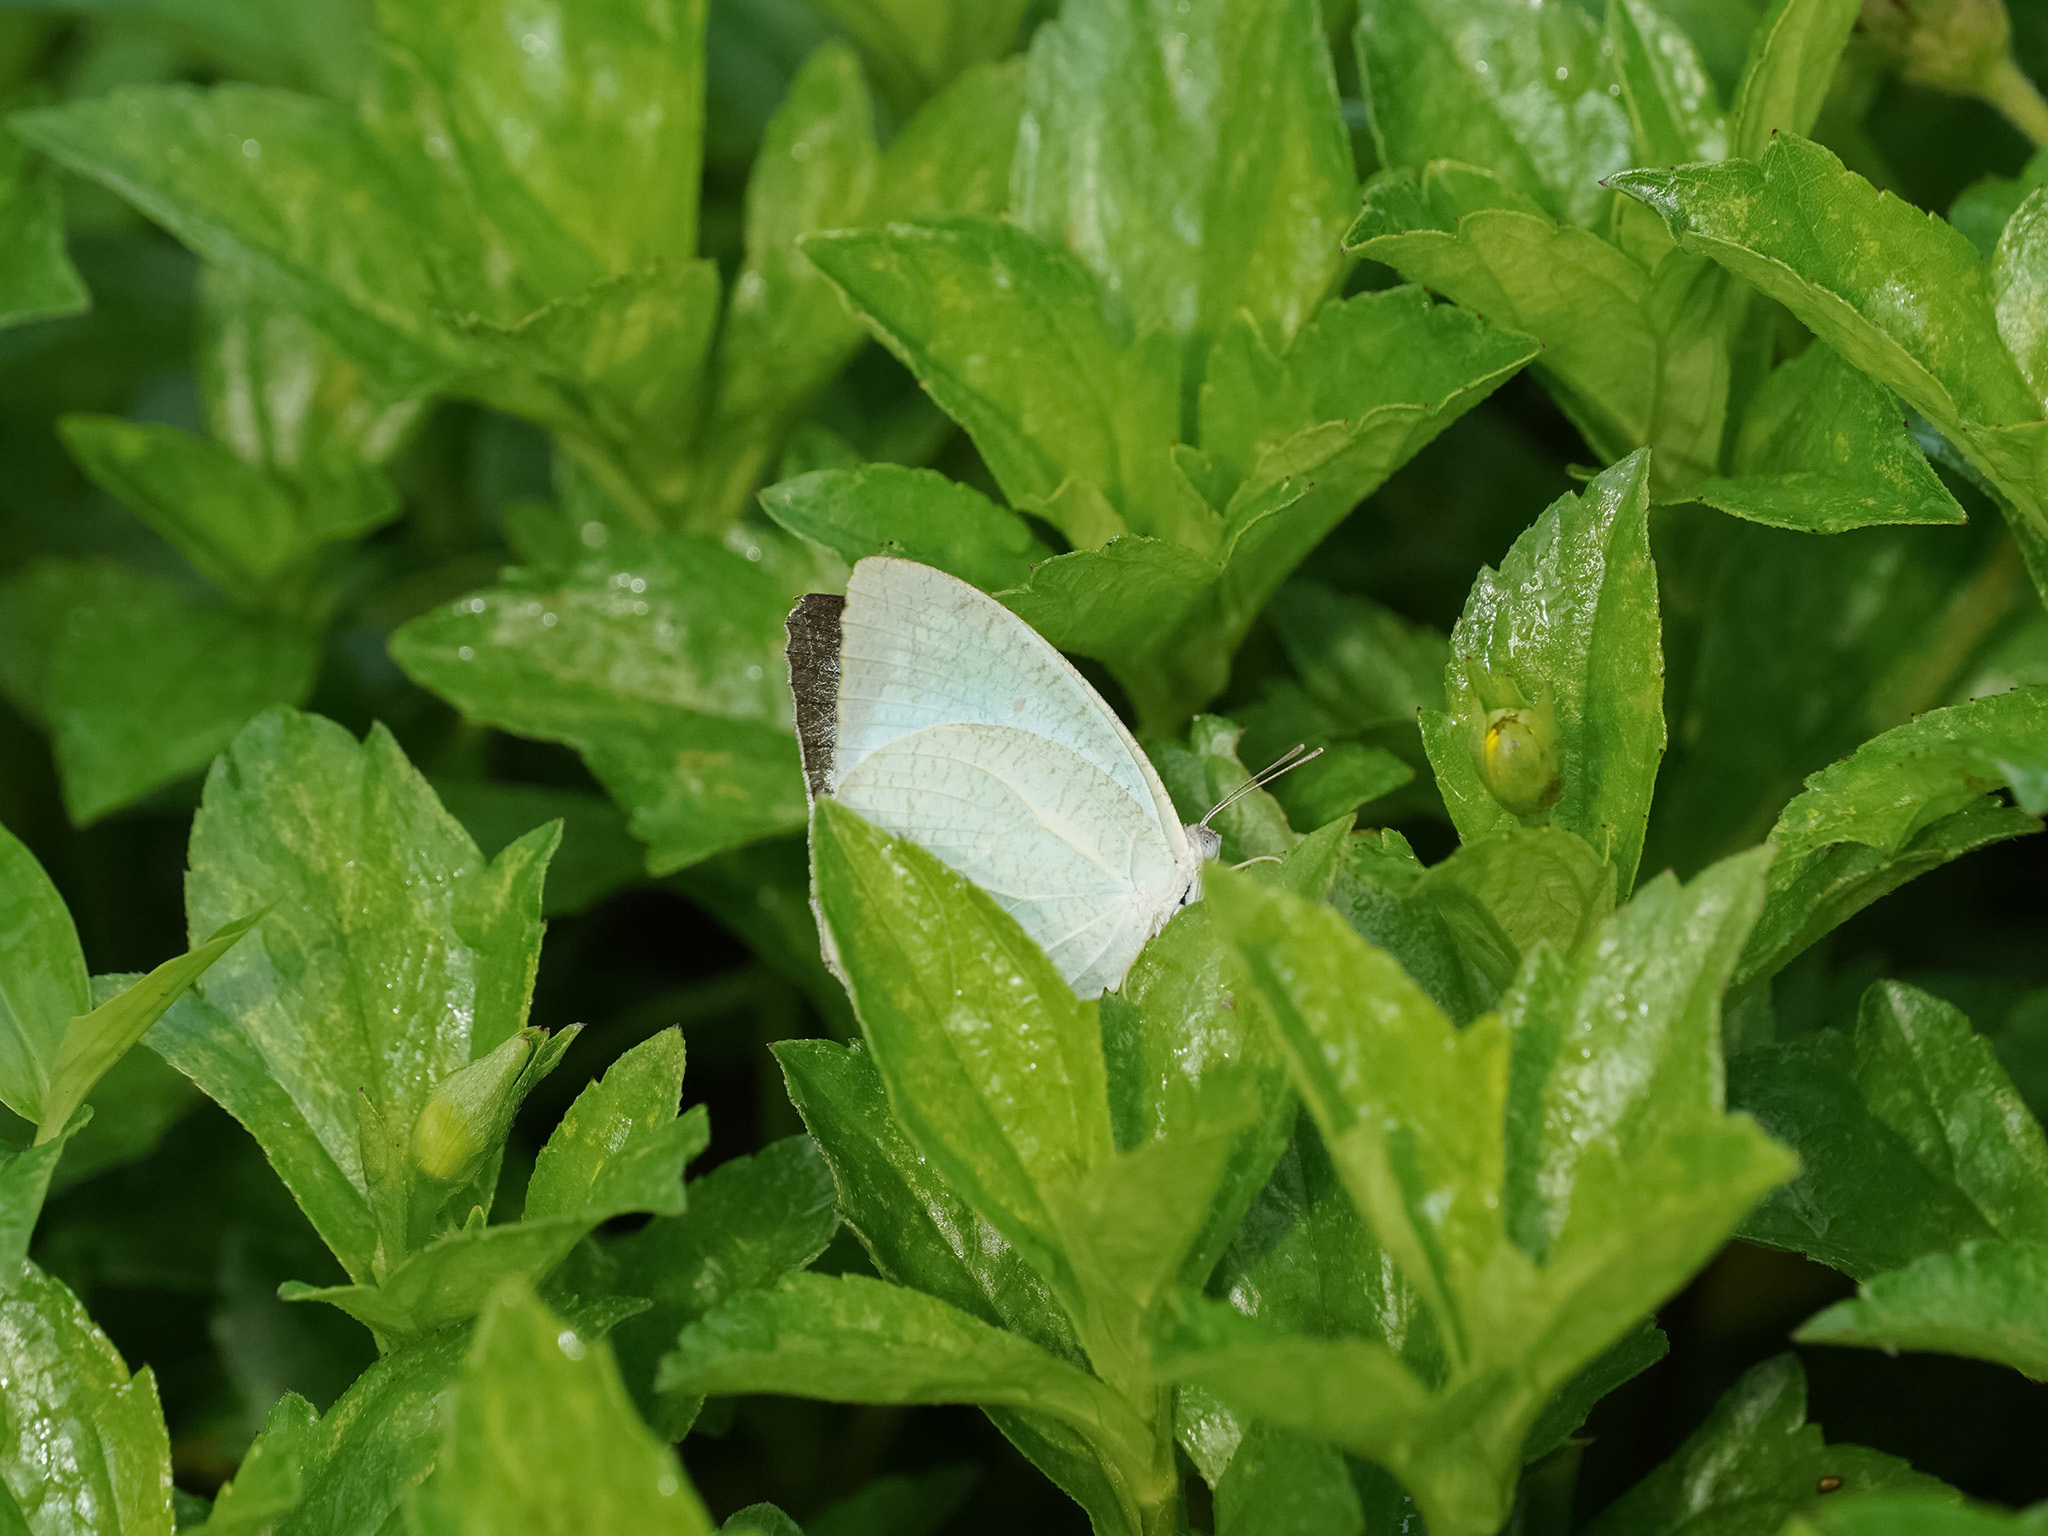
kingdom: Animalia
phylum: Arthropoda
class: Insecta
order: Lepidoptera
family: Pieridae
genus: Catopsilia
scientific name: Catopsilia pyranthe
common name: Mottled emigrant
